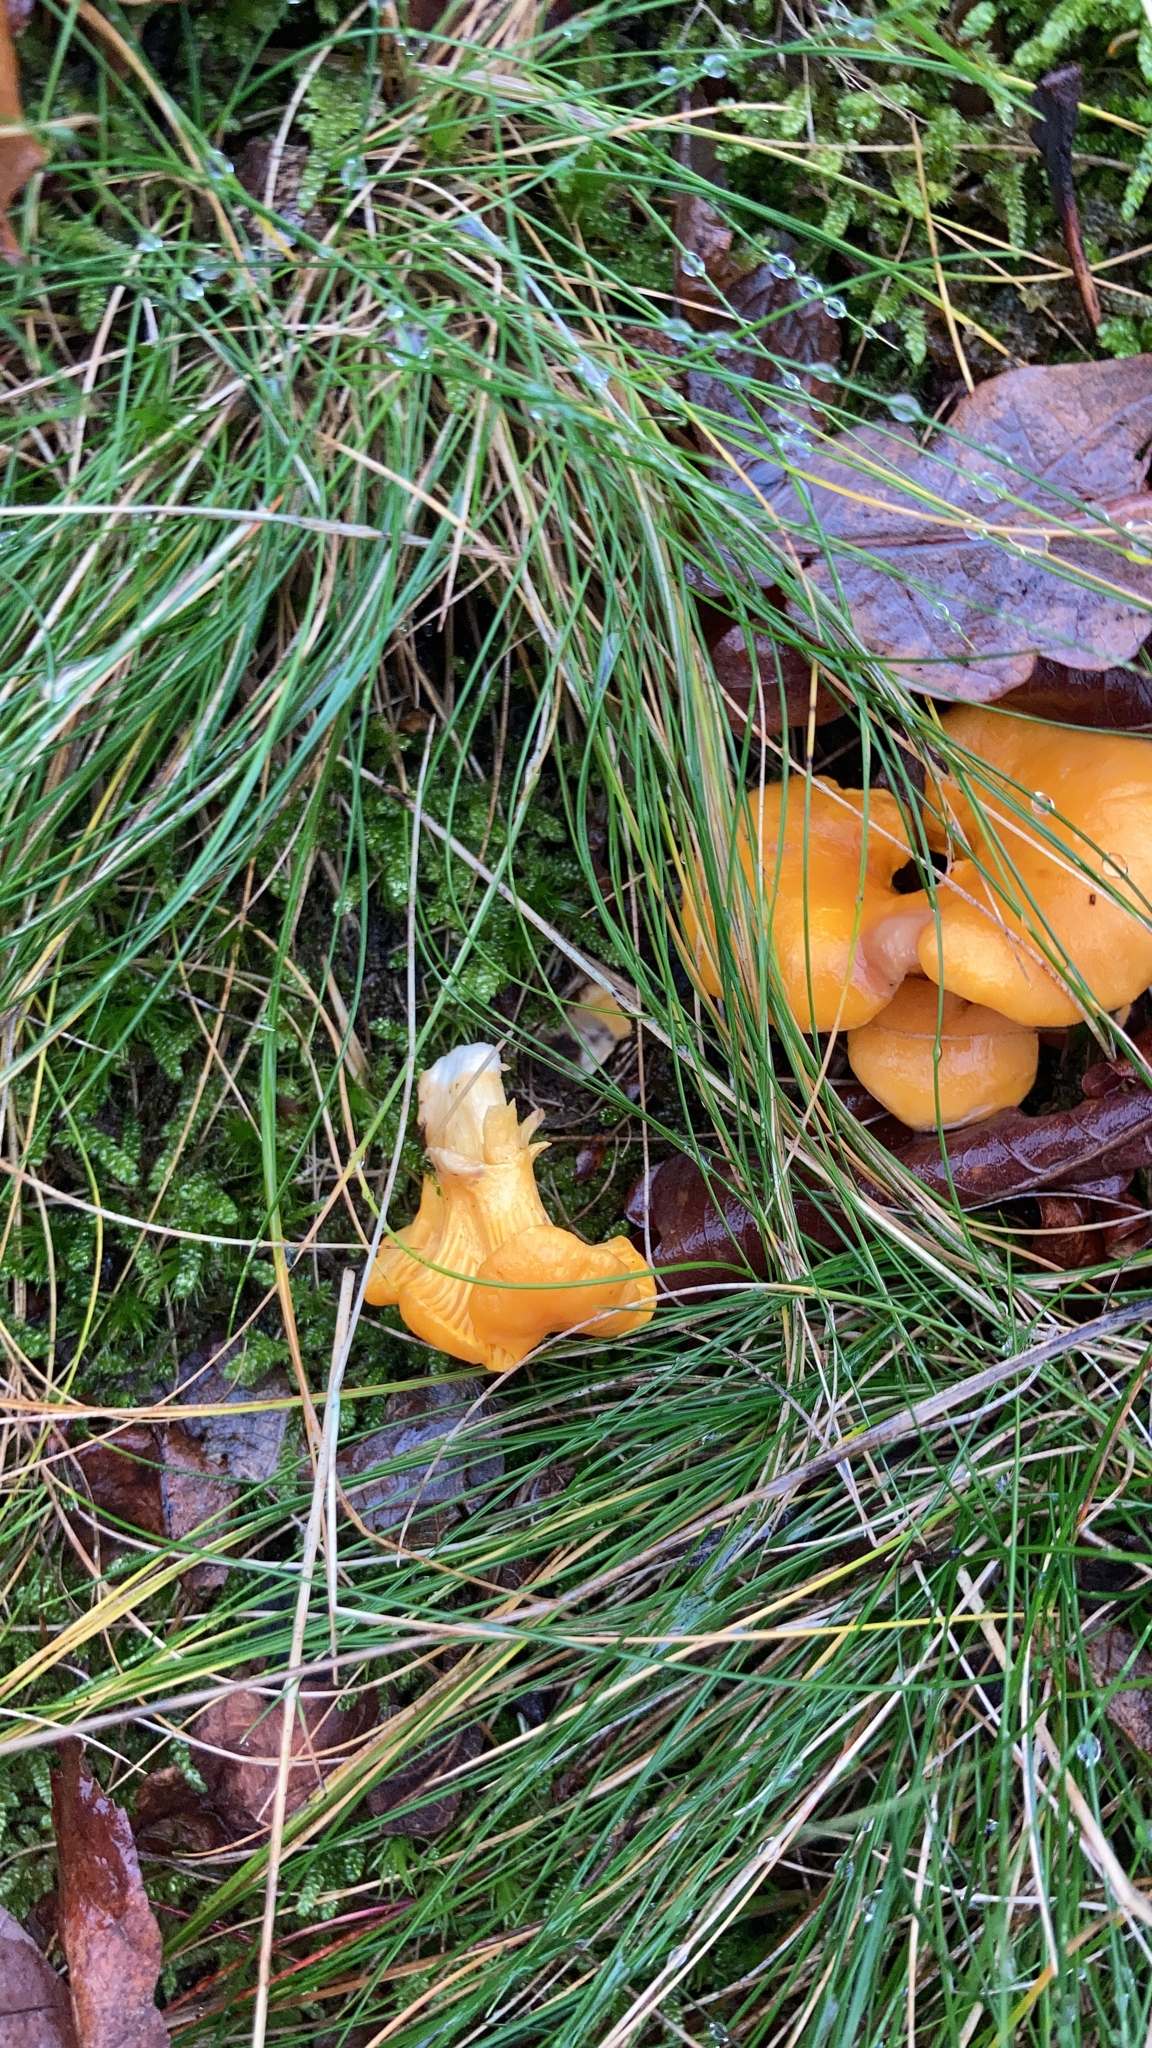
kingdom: Fungi
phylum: Basidiomycota
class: Agaricomycetes
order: Cantharellales
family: Hydnaceae
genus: Cantharellus
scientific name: Cantharellus cibarius
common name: Chanterelle
